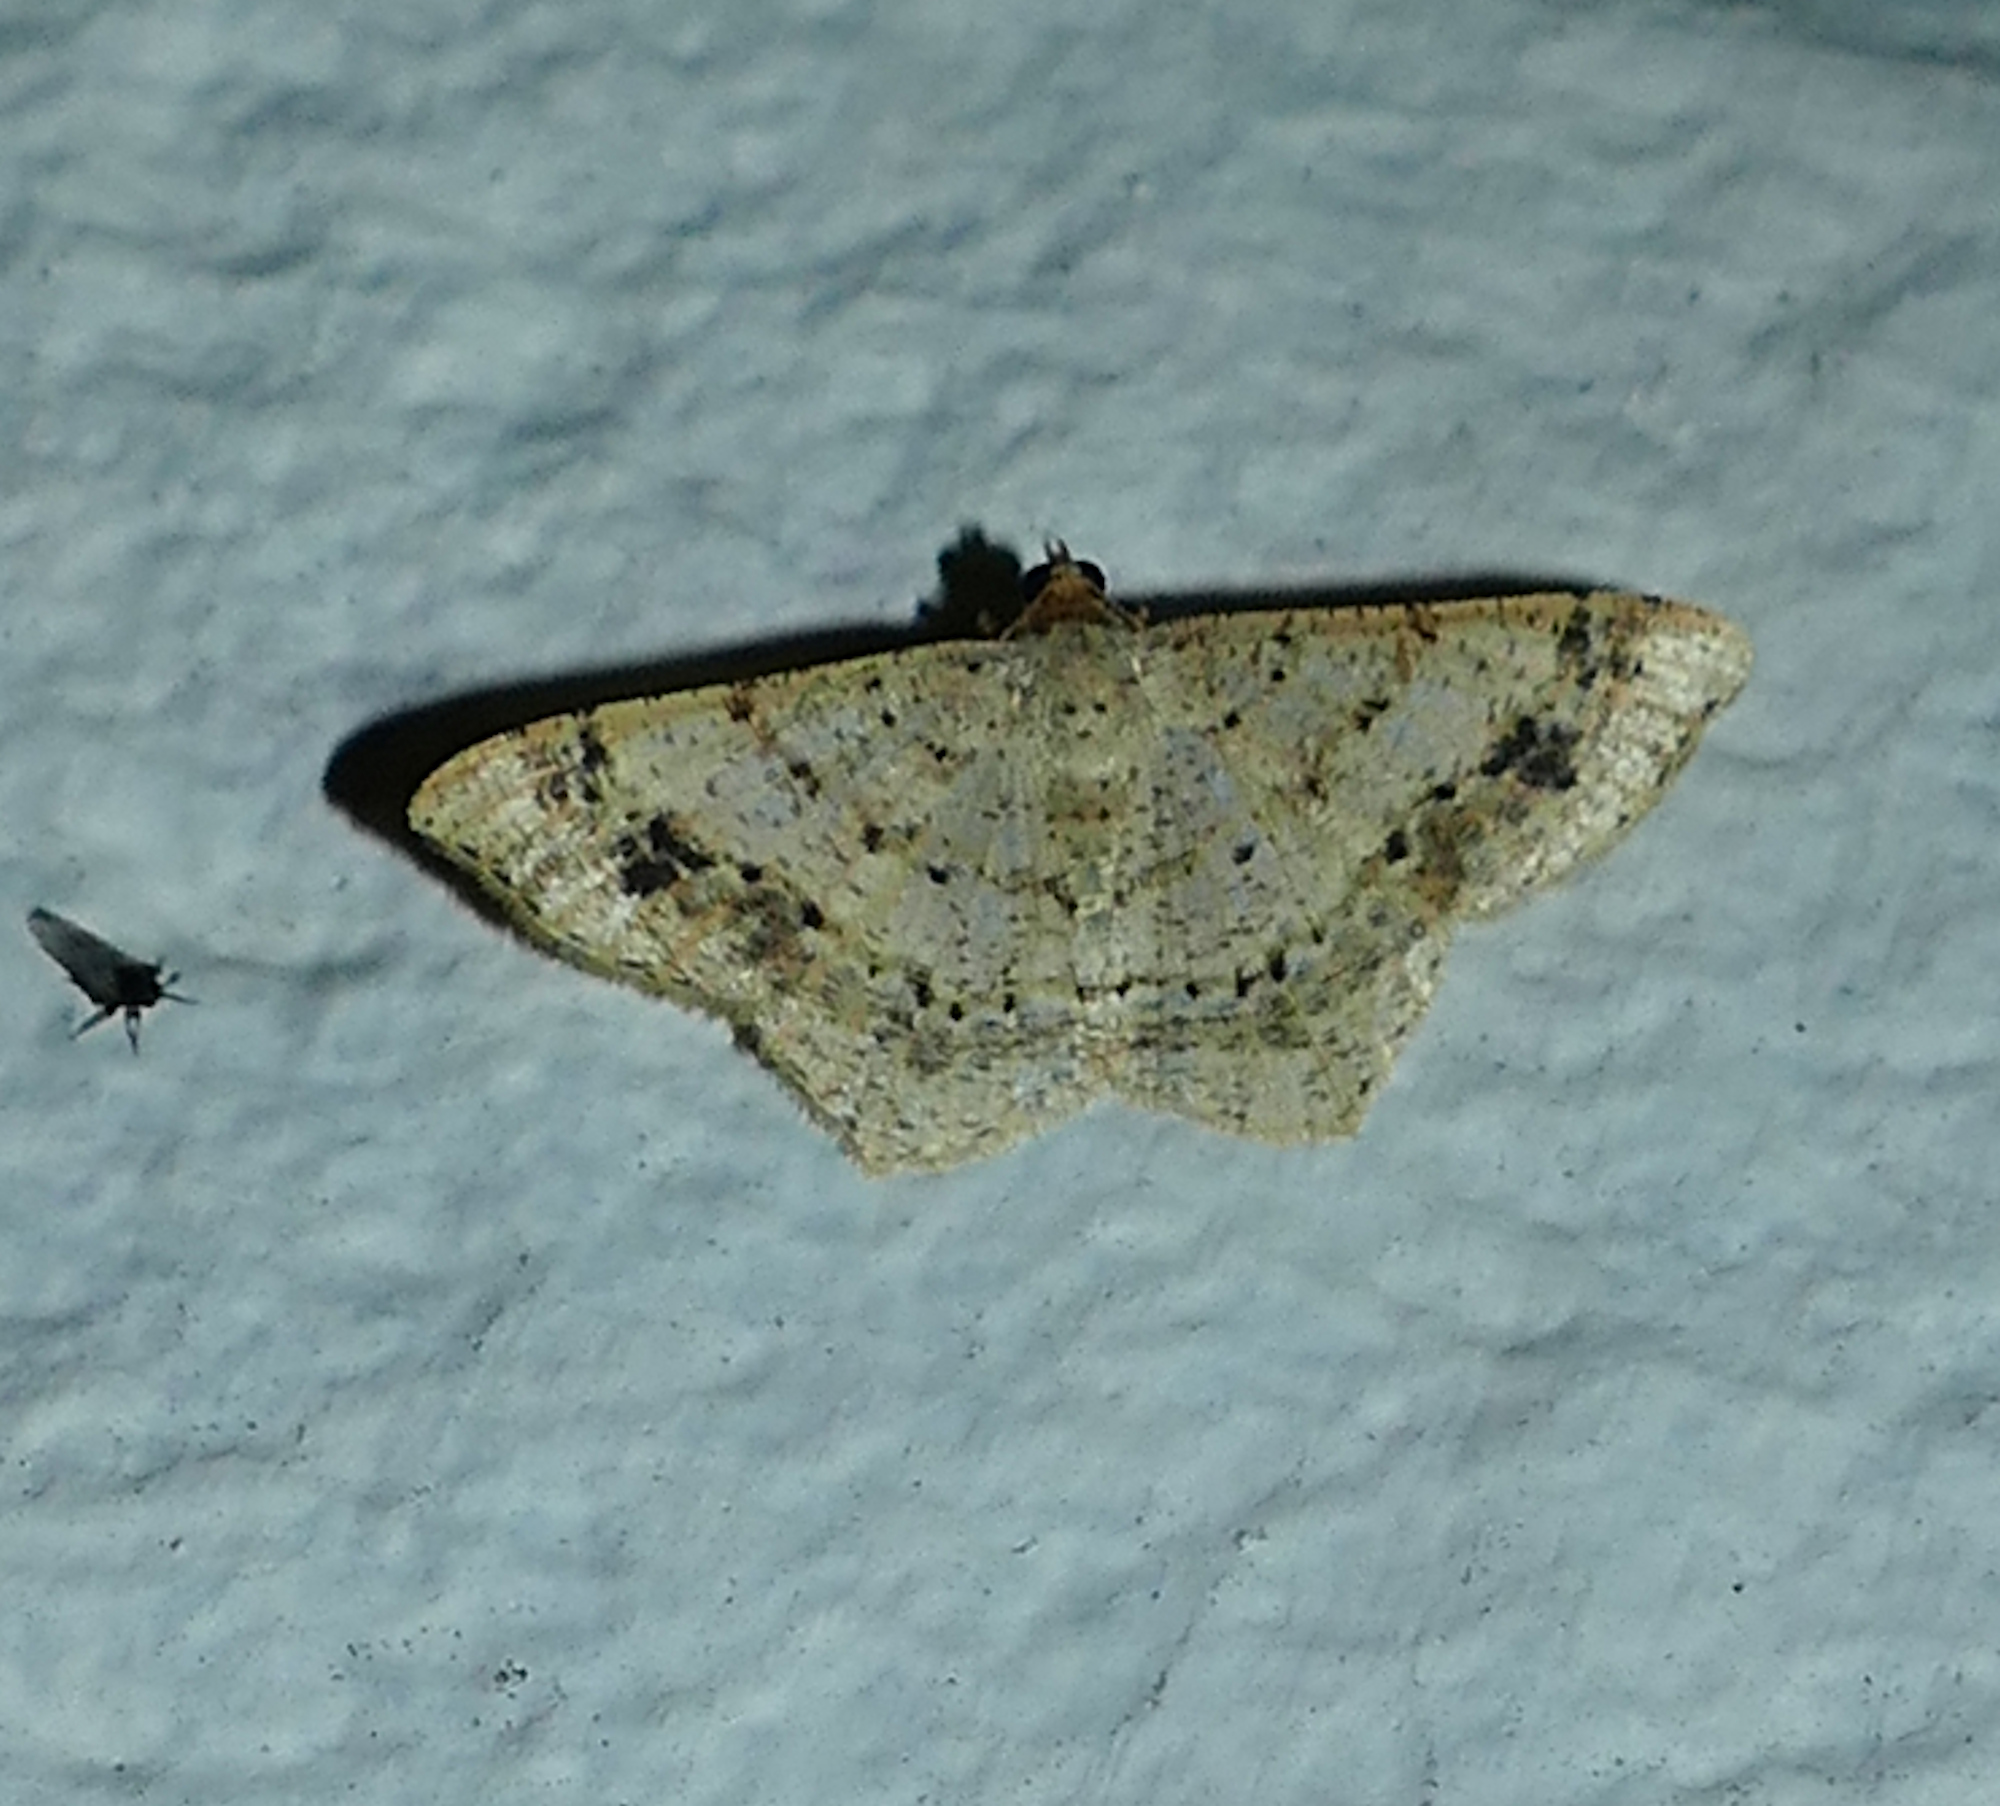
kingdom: Animalia
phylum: Arthropoda
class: Insecta
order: Lepidoptera
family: Geometridae
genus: Macaria
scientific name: Macaria abydata
